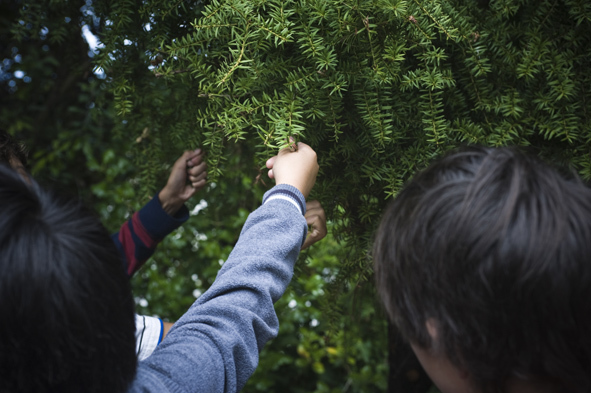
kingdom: Plantae
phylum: Tracheophyta
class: Pinopsida
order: Pinales
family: Podocarpaceae
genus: Podocarpus
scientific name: Podocarpus totara
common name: Totara
